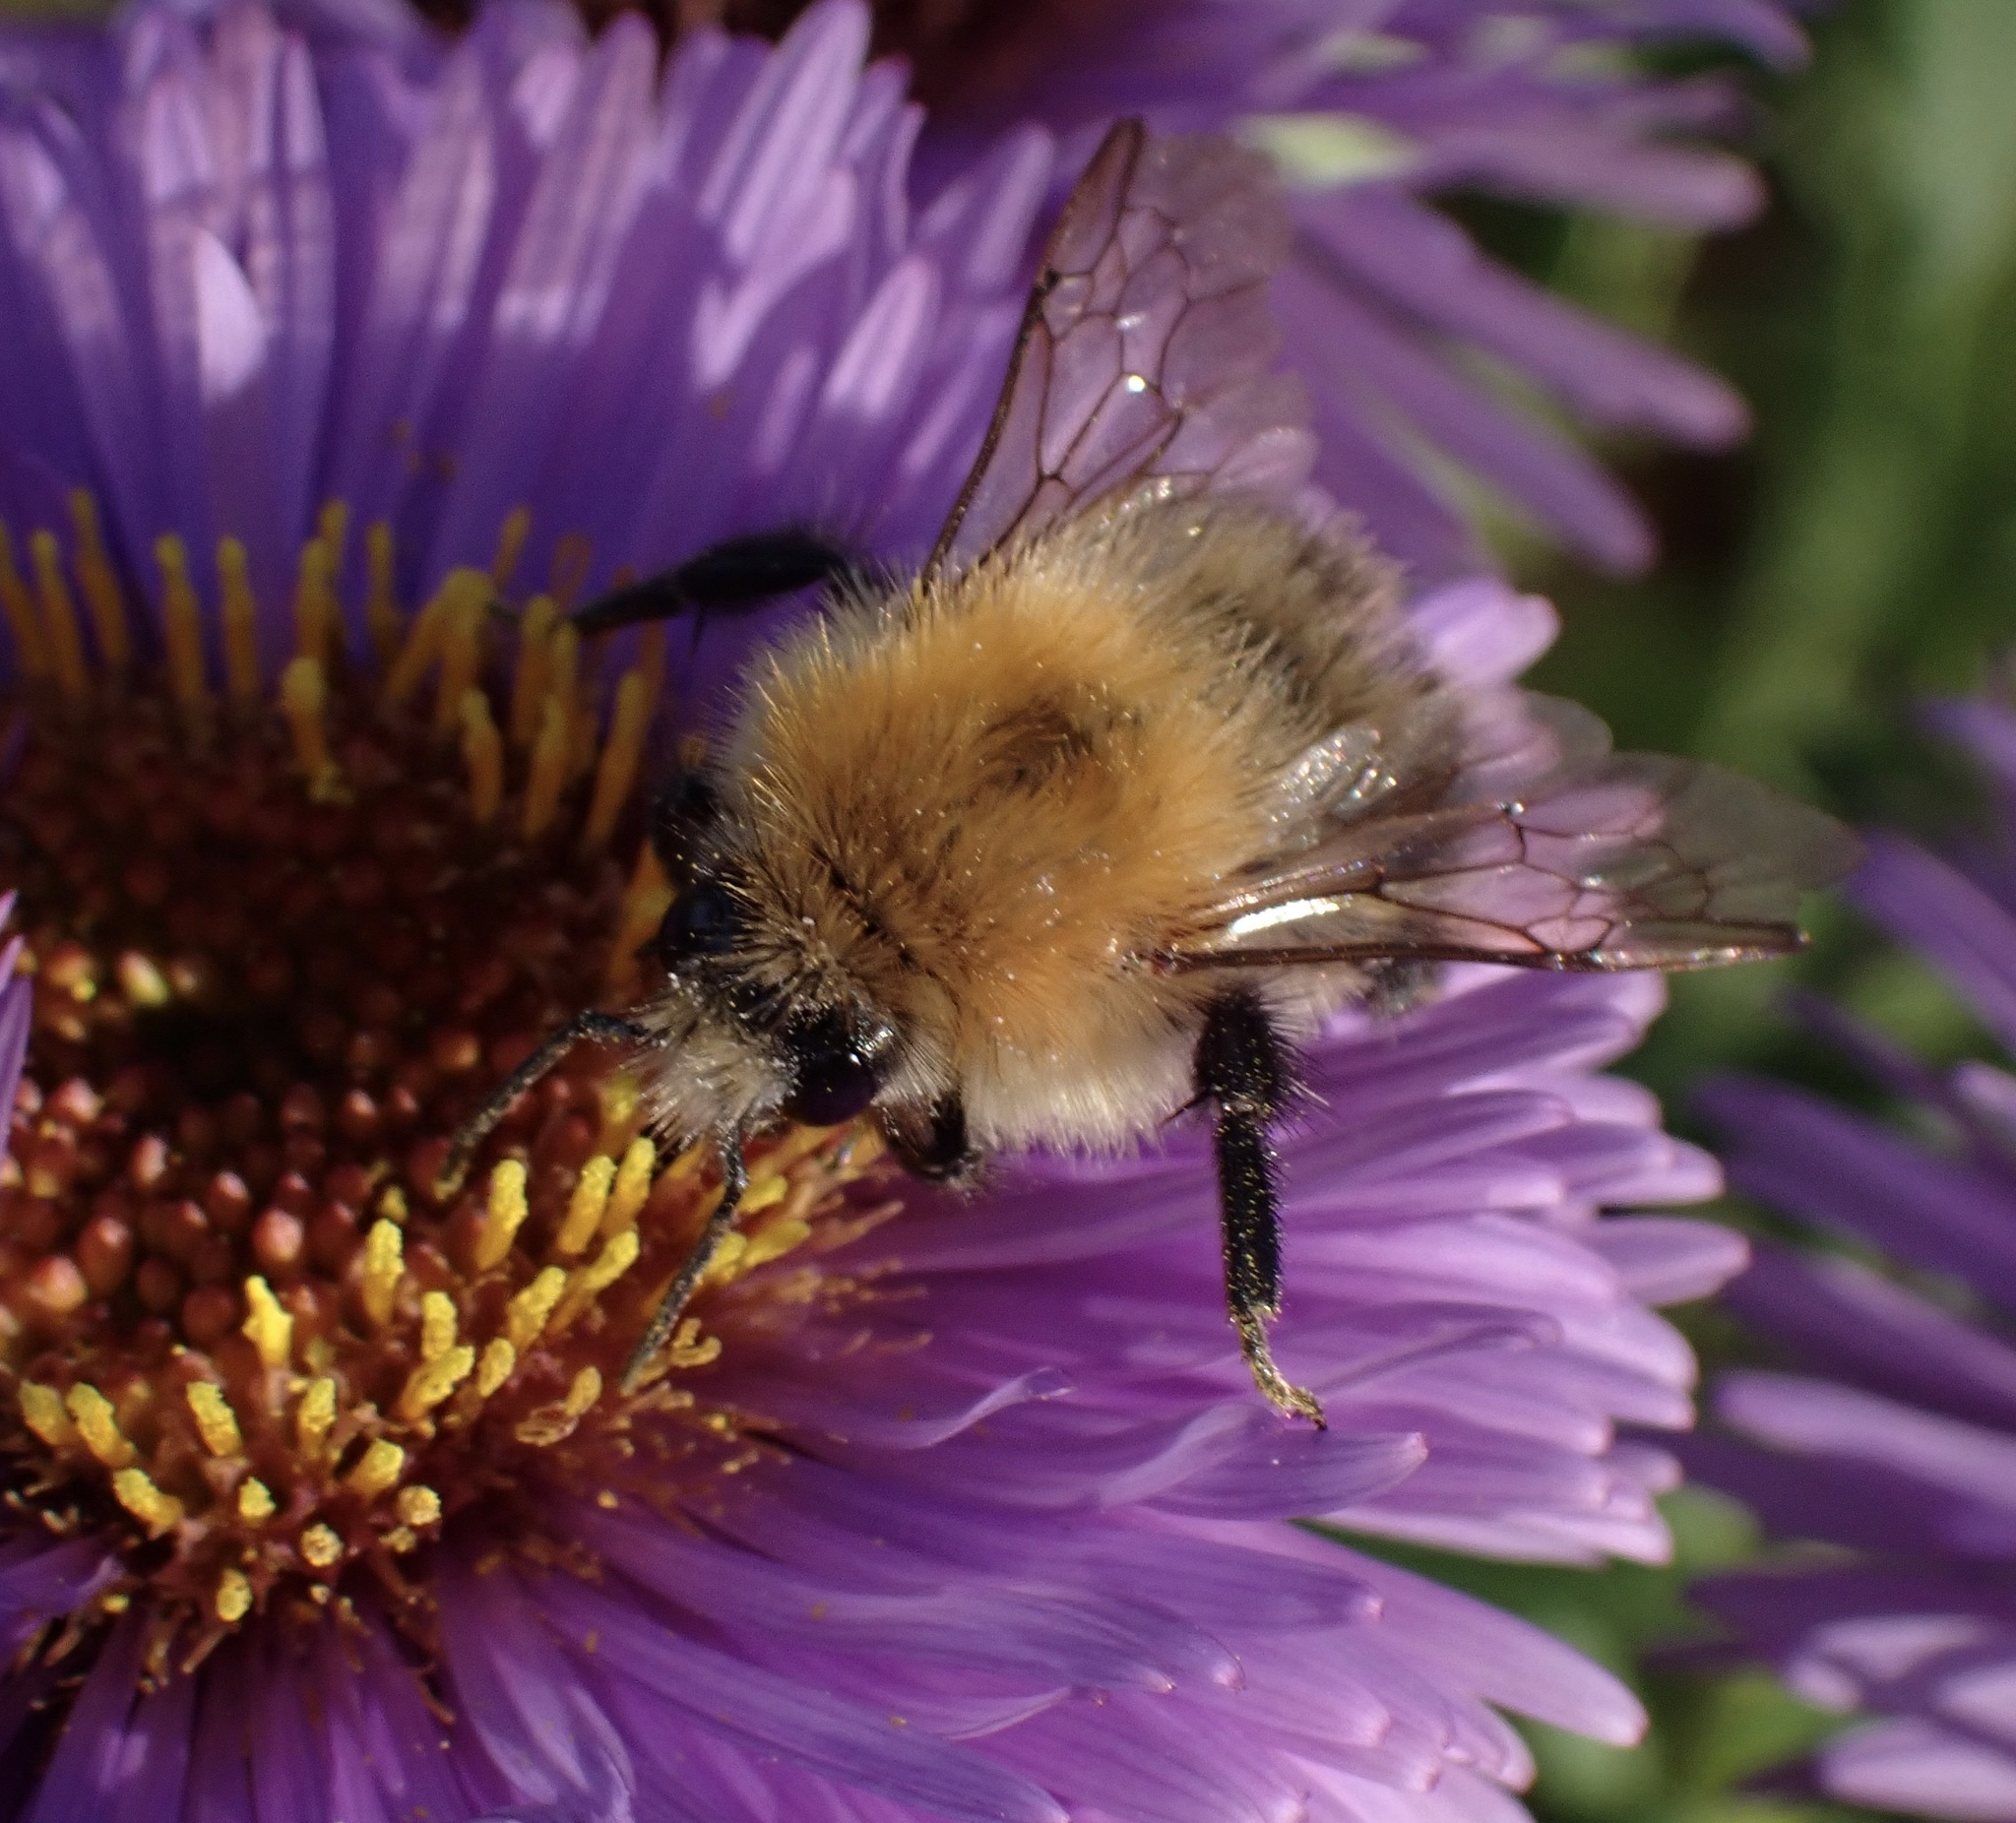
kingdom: Animalia
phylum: Arthropoda
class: Insecta
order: Hymenoptera
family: Apidae
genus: Bombus
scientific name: Bombus pascuorum
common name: Common carder bee
